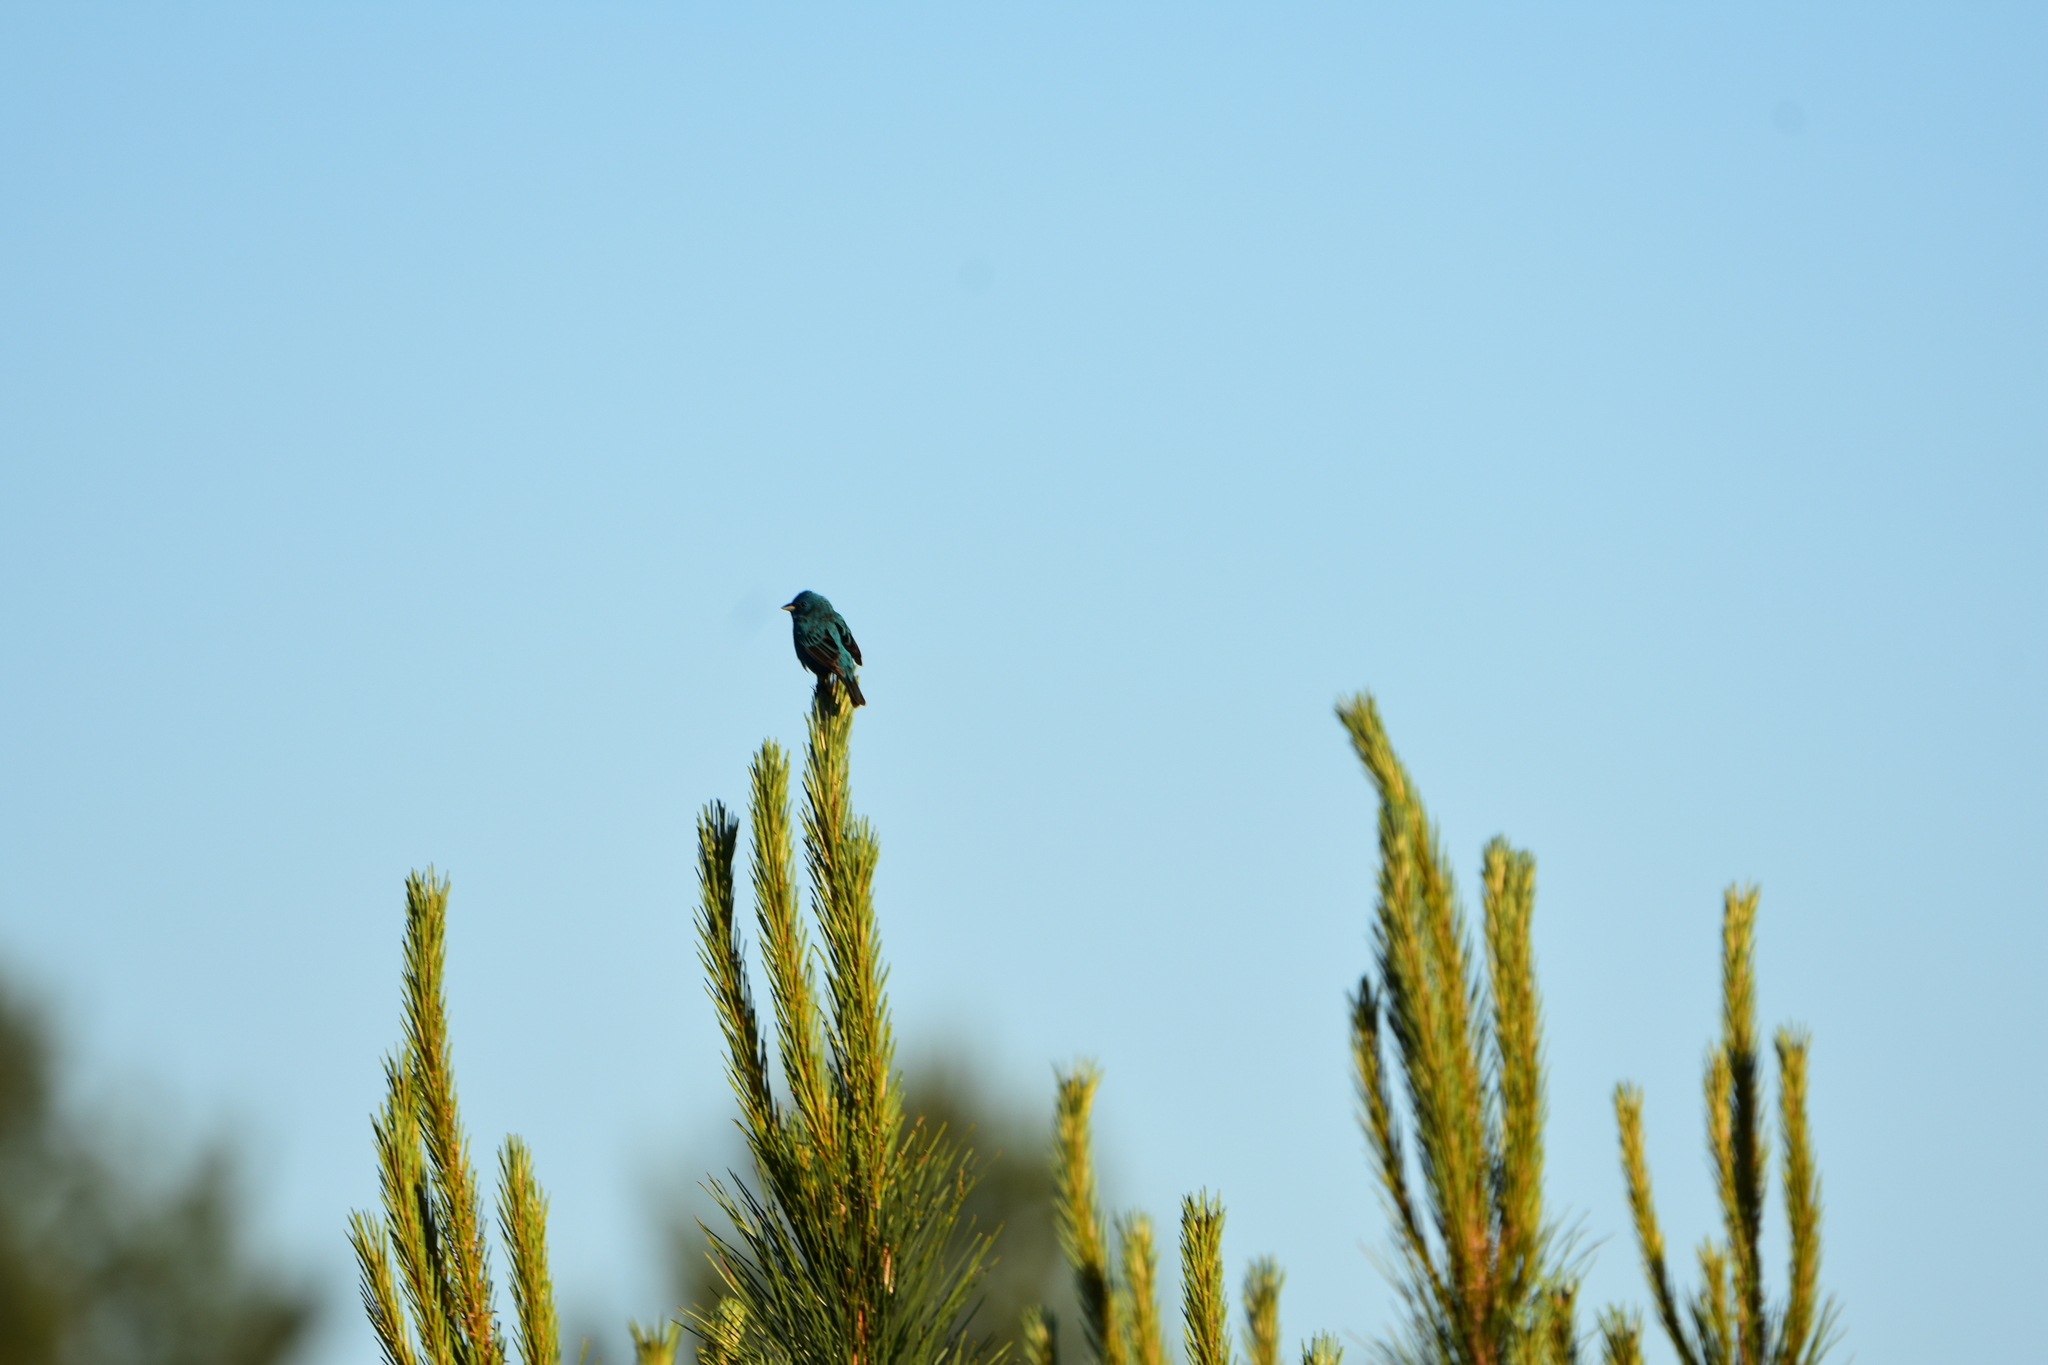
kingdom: Animalia
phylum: Chordata
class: Aves
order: Passeriformes
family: Cardinalidae
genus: Passerina
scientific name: Passerina cyanea
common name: Indigo bunting
